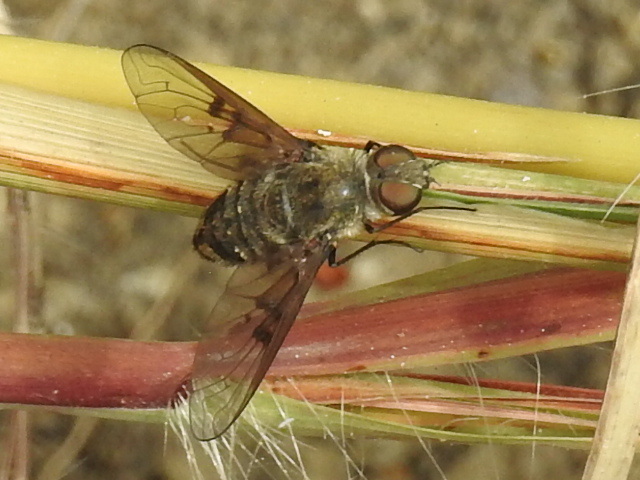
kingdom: Animalia
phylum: Arthropoda
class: Insecta
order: Diptera
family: Bombyliidae
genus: Anthrax
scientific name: Anthrax larrea
